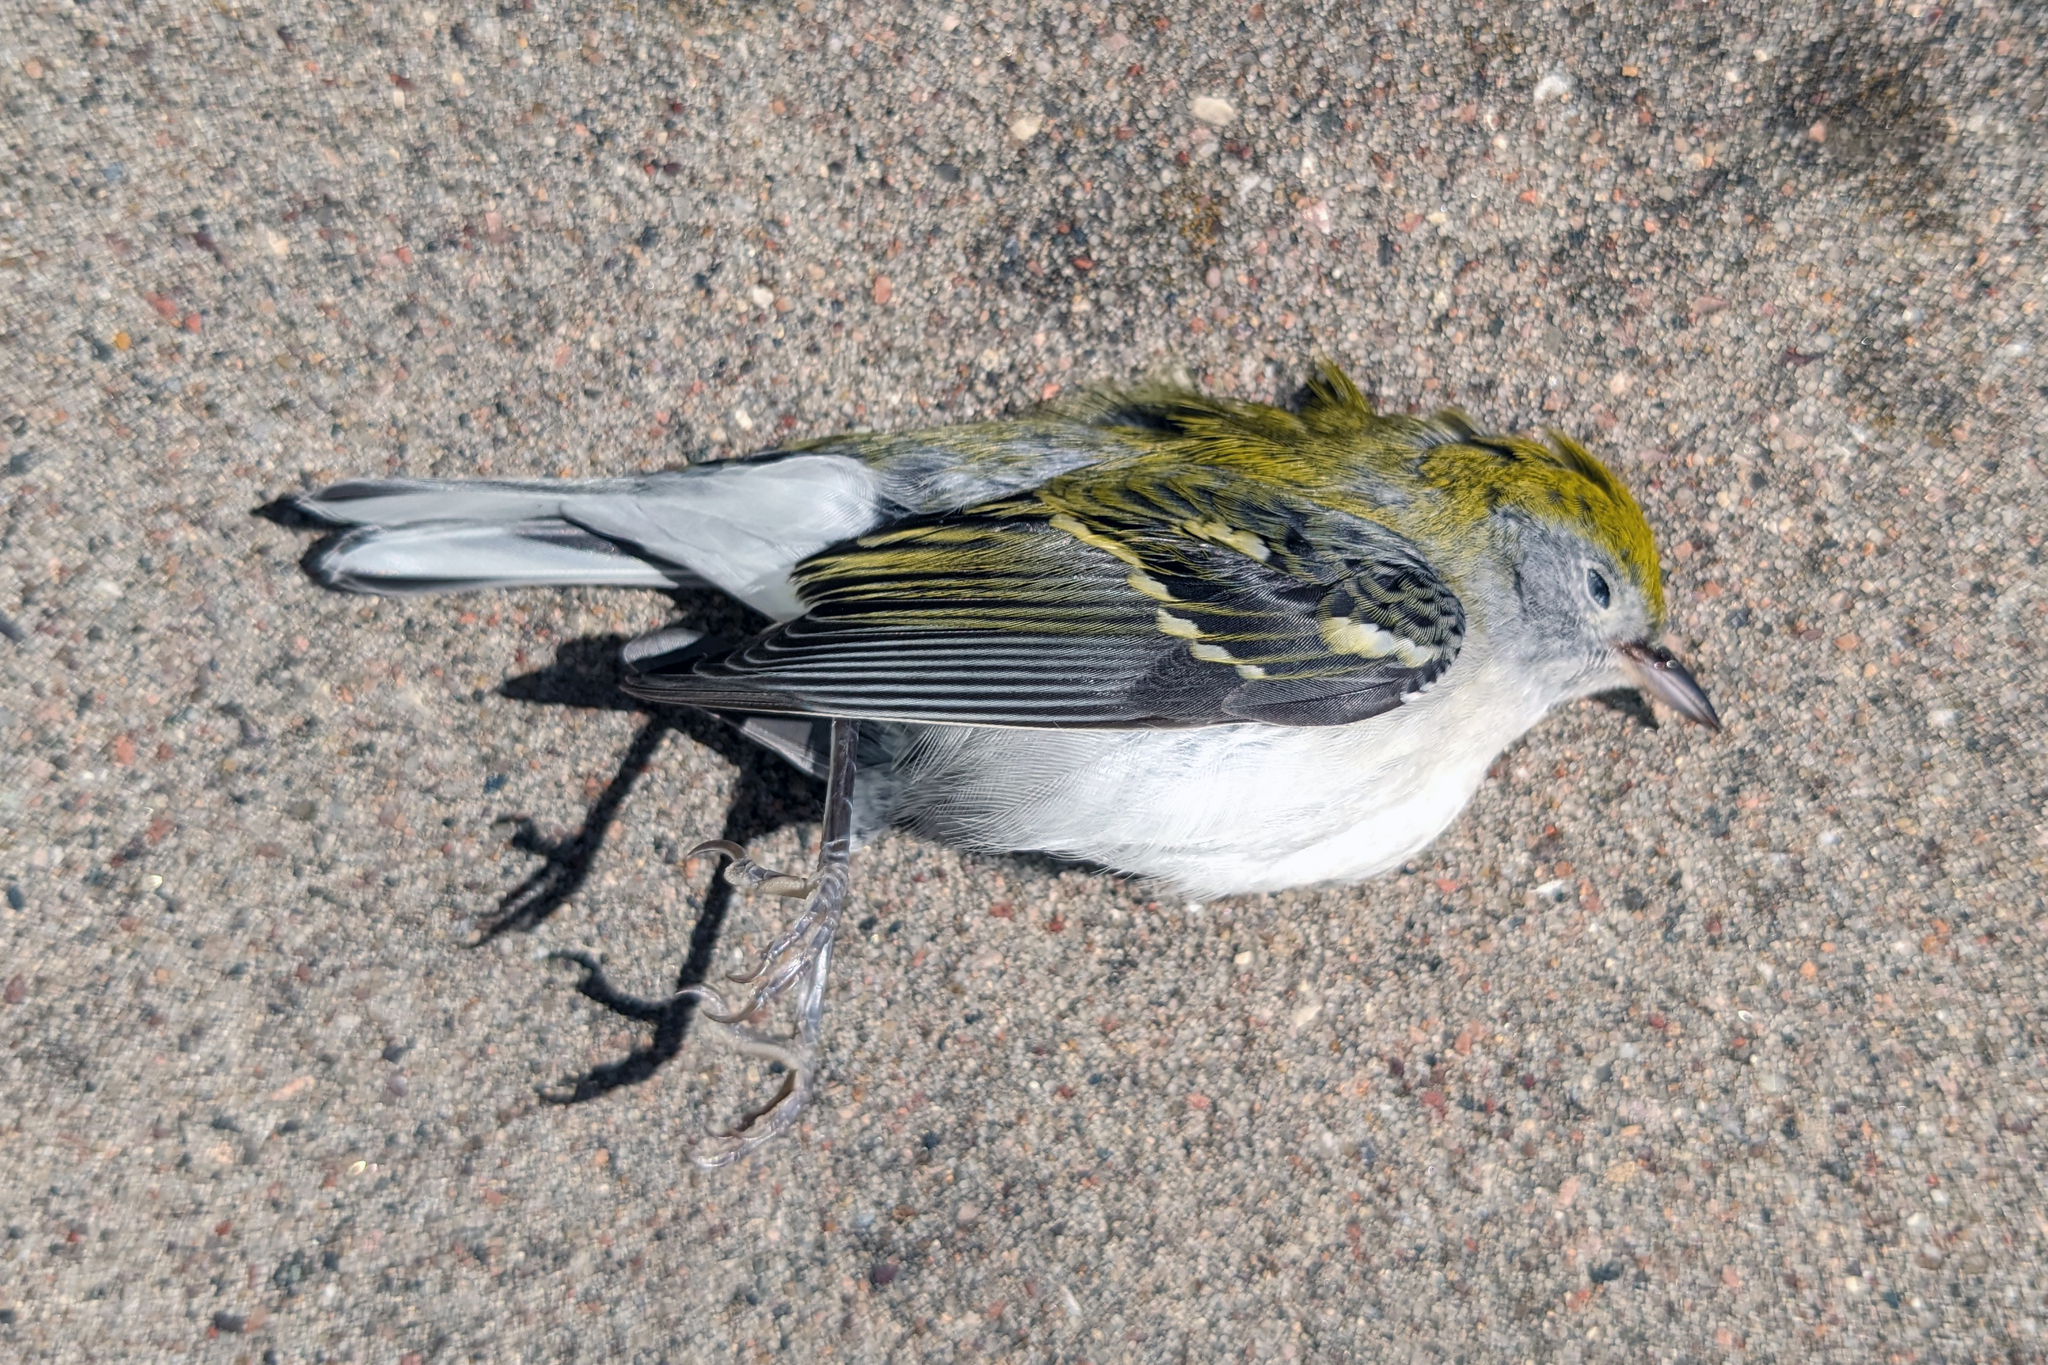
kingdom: Animalia
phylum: Chordata
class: Aves
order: Passeriformes
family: Parulidae
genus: Setophaga
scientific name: Setophaga pensylvanica
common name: Chestnut-sided warbler
